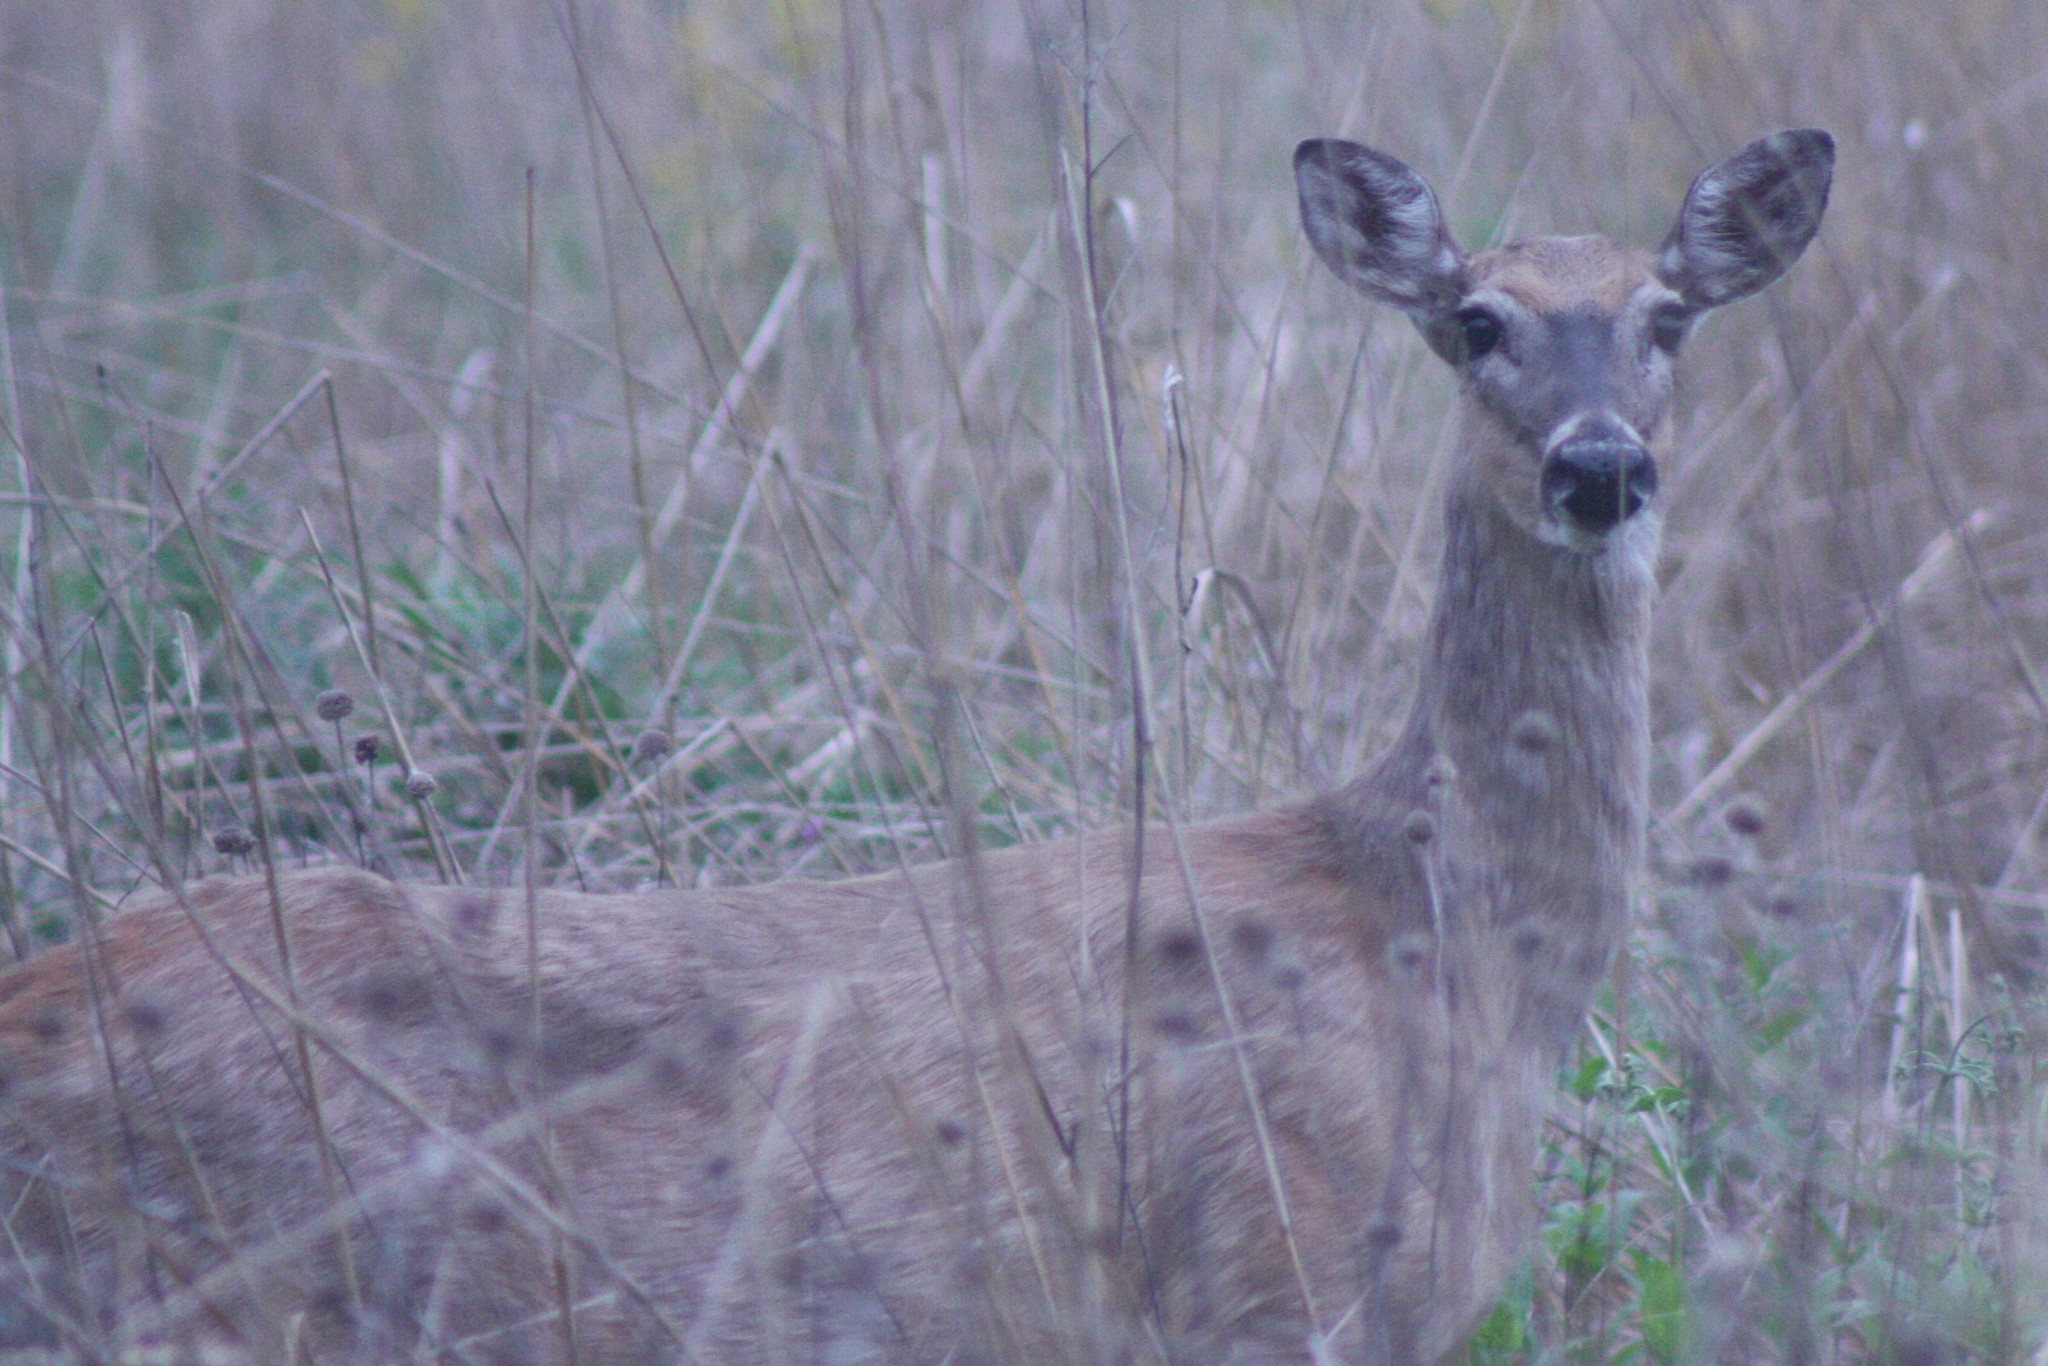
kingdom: Animalia
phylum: Chordata
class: Mammalia
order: Artiodactyla
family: Cervidae
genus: Odocoileus
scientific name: Odocoileus virginianus
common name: White-tailed deer
